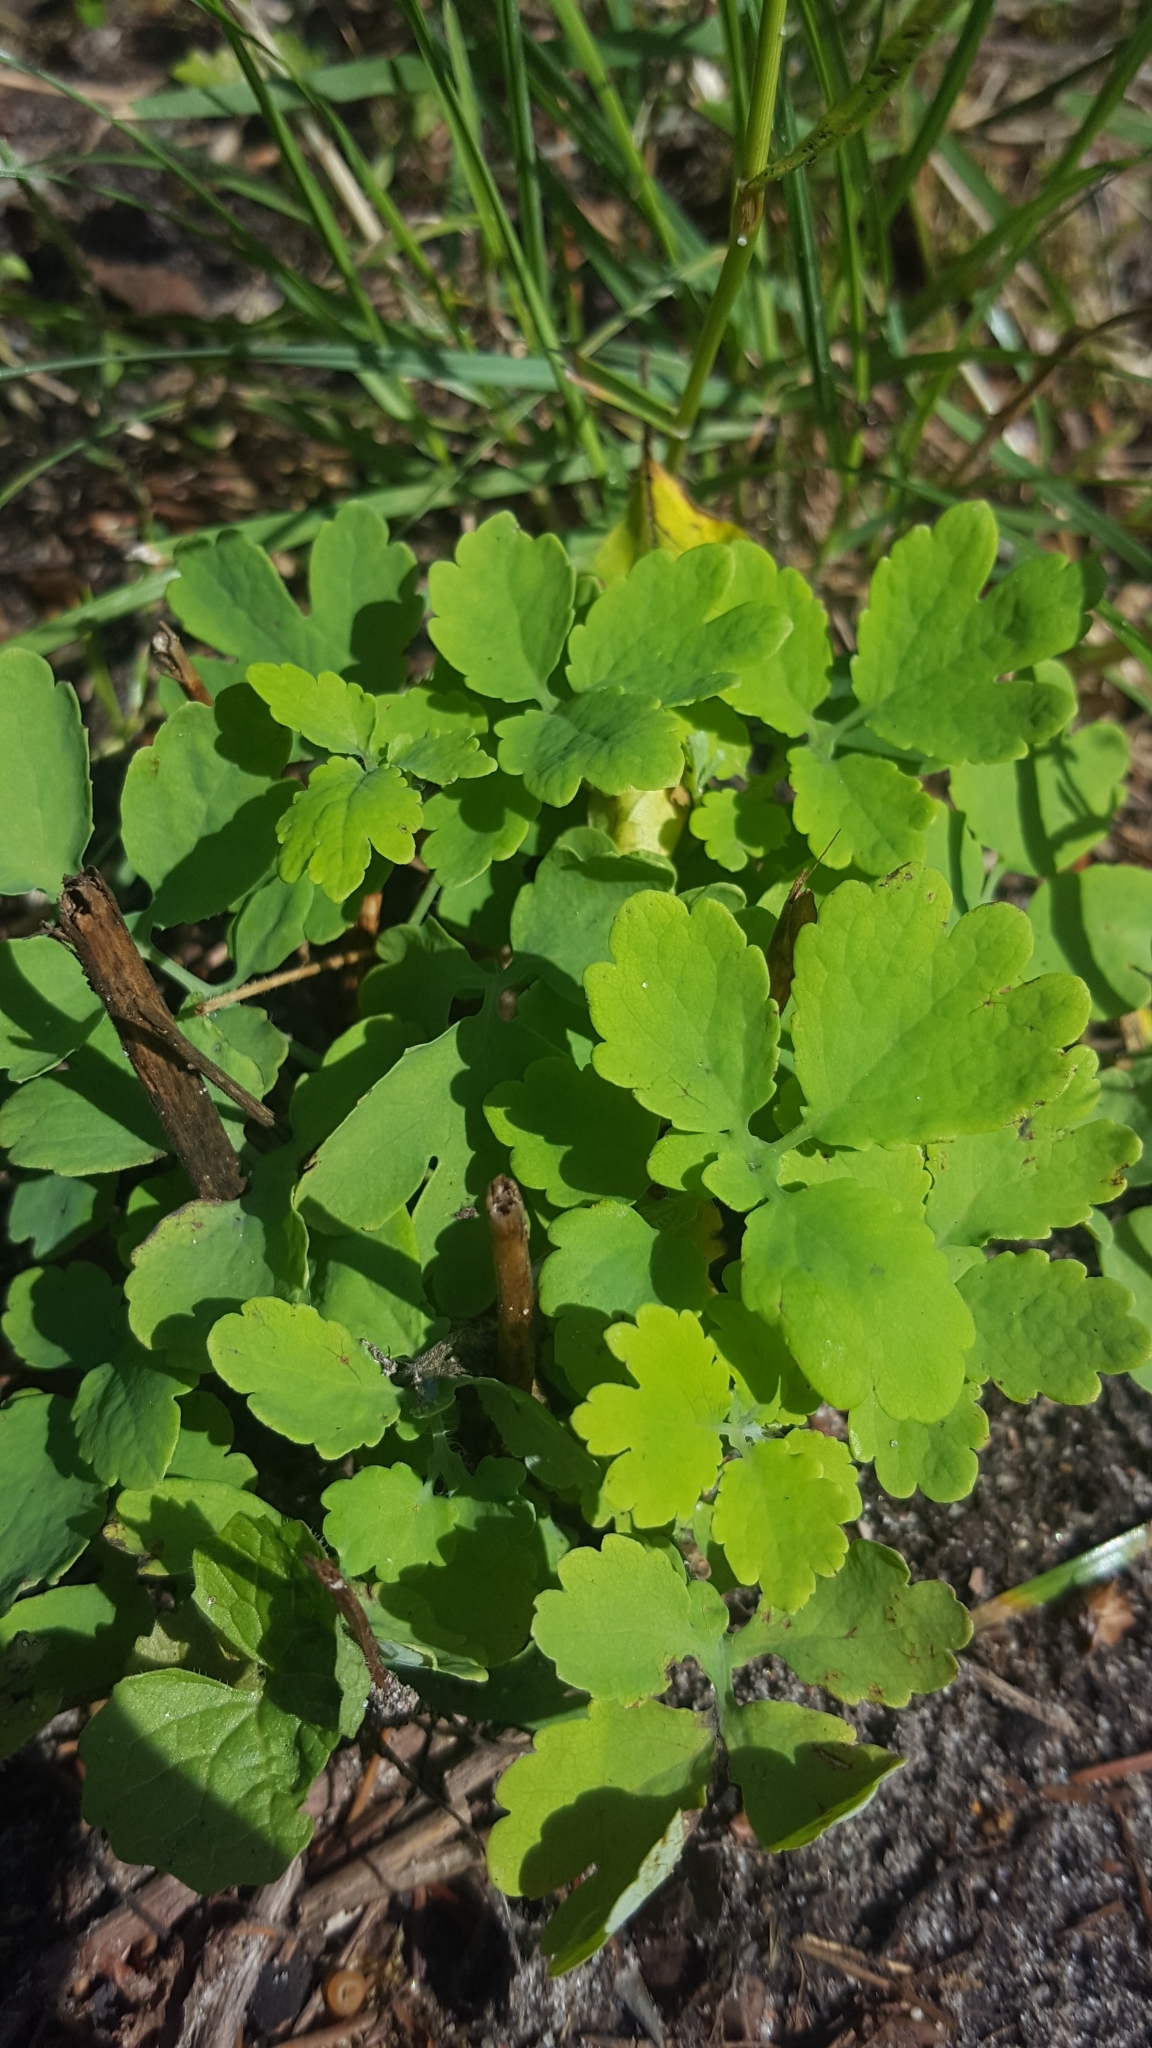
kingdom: Plantae
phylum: Tracheophyta
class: Magnoliopsida
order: Ranunculales
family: Papaveraceae
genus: Chelidonium
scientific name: Chelidonium majus
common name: Greater celandine
